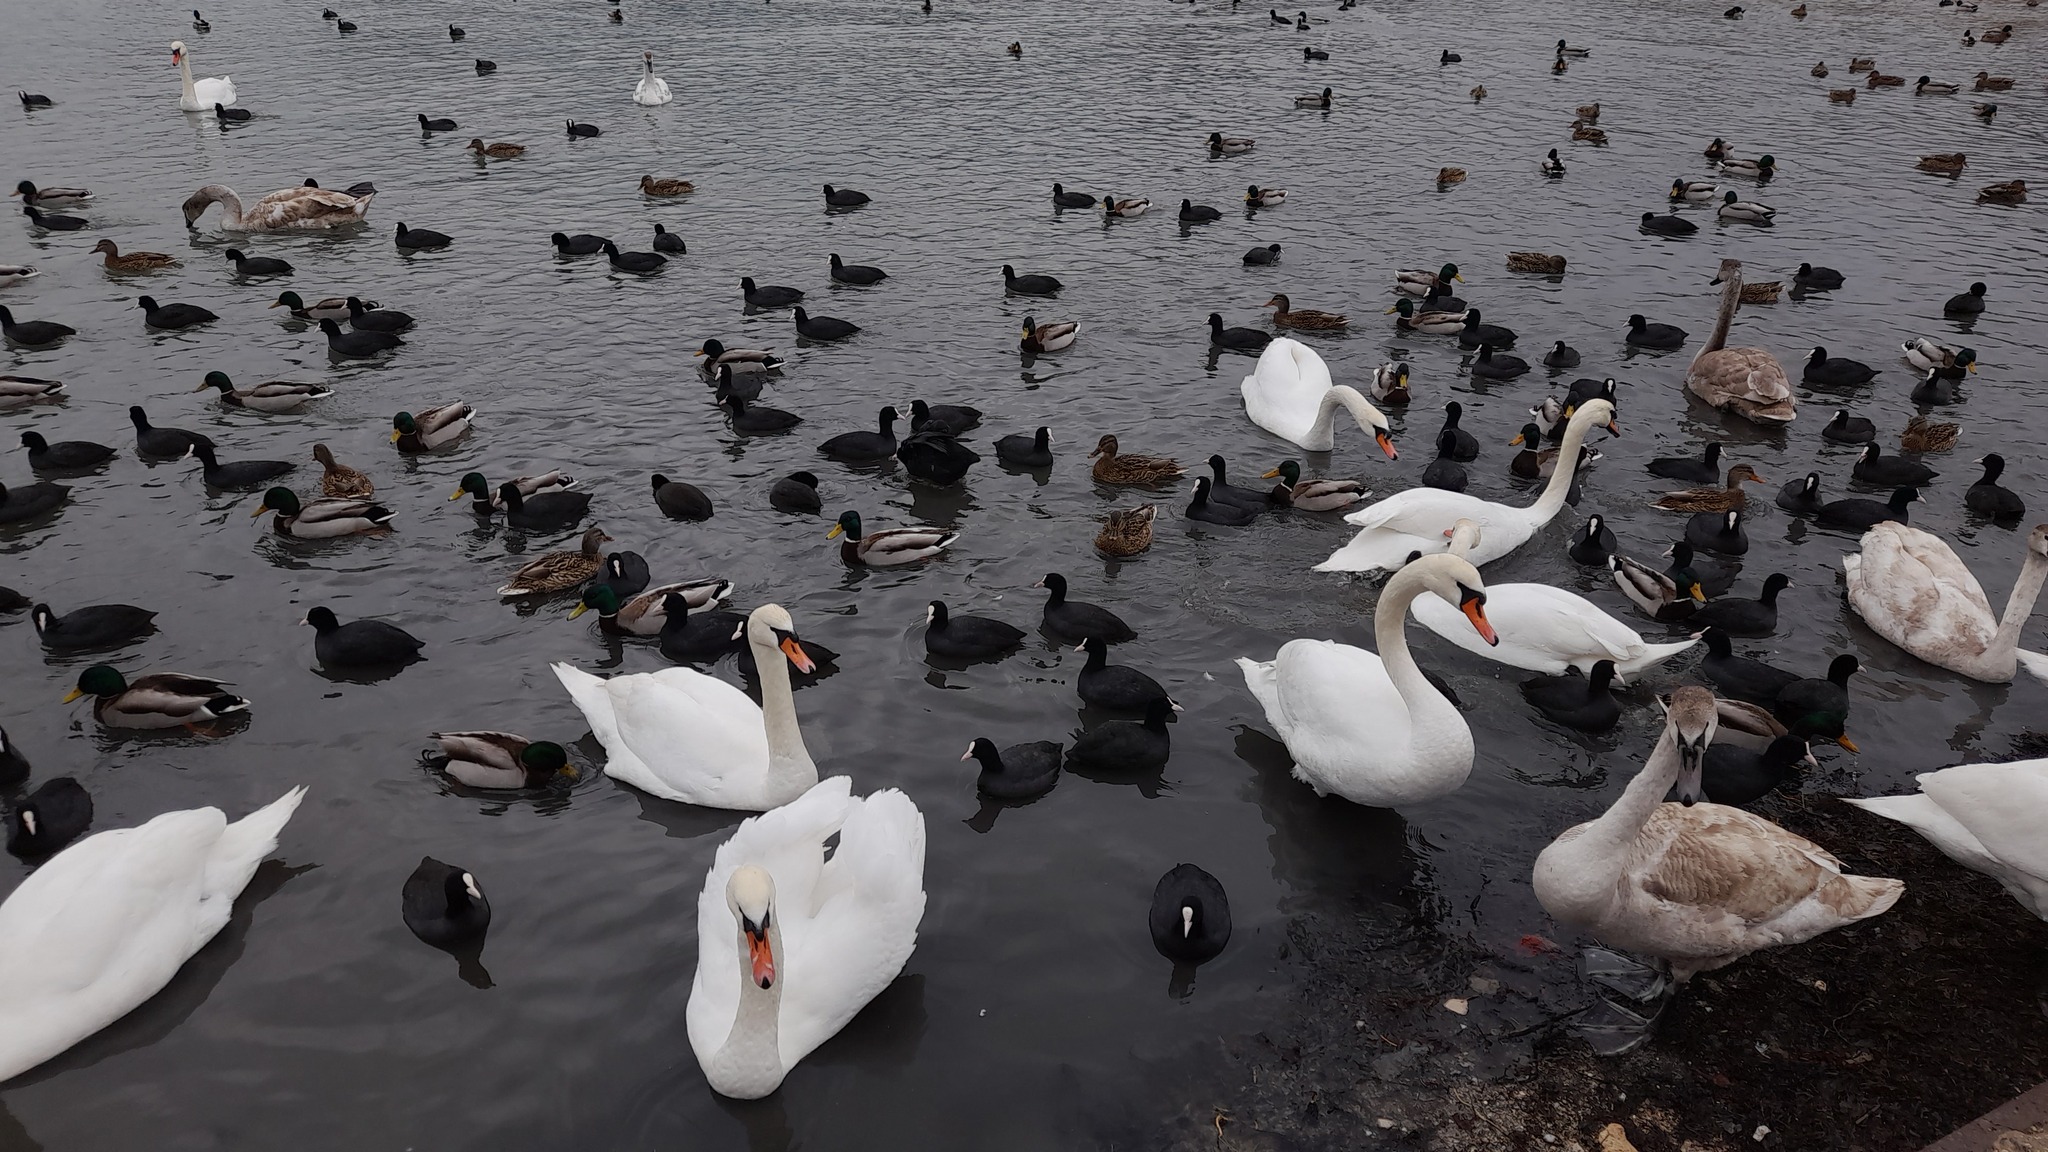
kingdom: Animalia
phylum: Chordata
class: Aves
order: Anseriformes
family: Anatidae
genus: Cygnus
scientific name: Cygnus olor
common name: Mute swan
